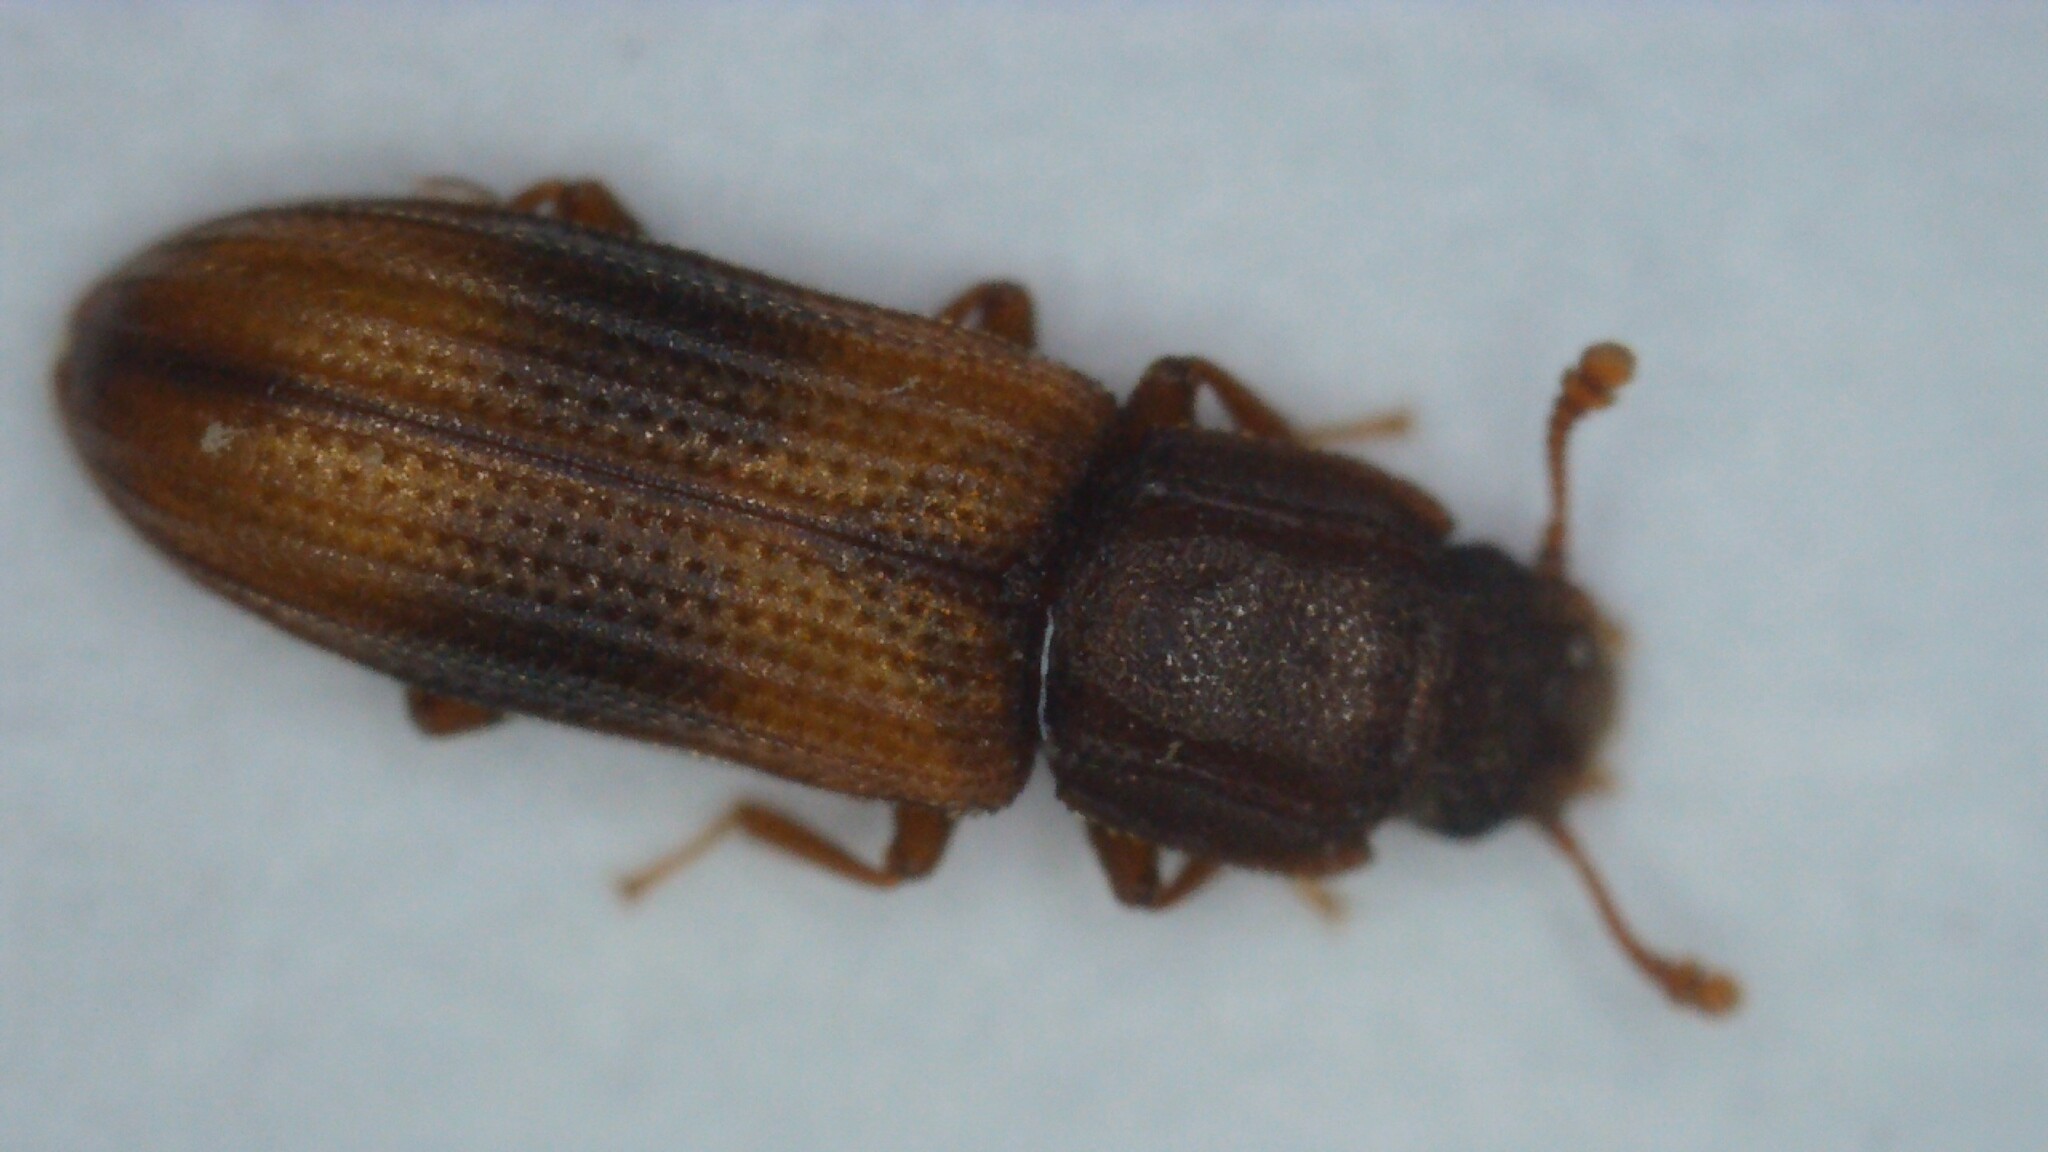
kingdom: Animalia
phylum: Arthropoda
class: Insecta
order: Coleoptera
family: Zopheridae
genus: Bitoma
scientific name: Bitoma crenata
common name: Bark beetle
